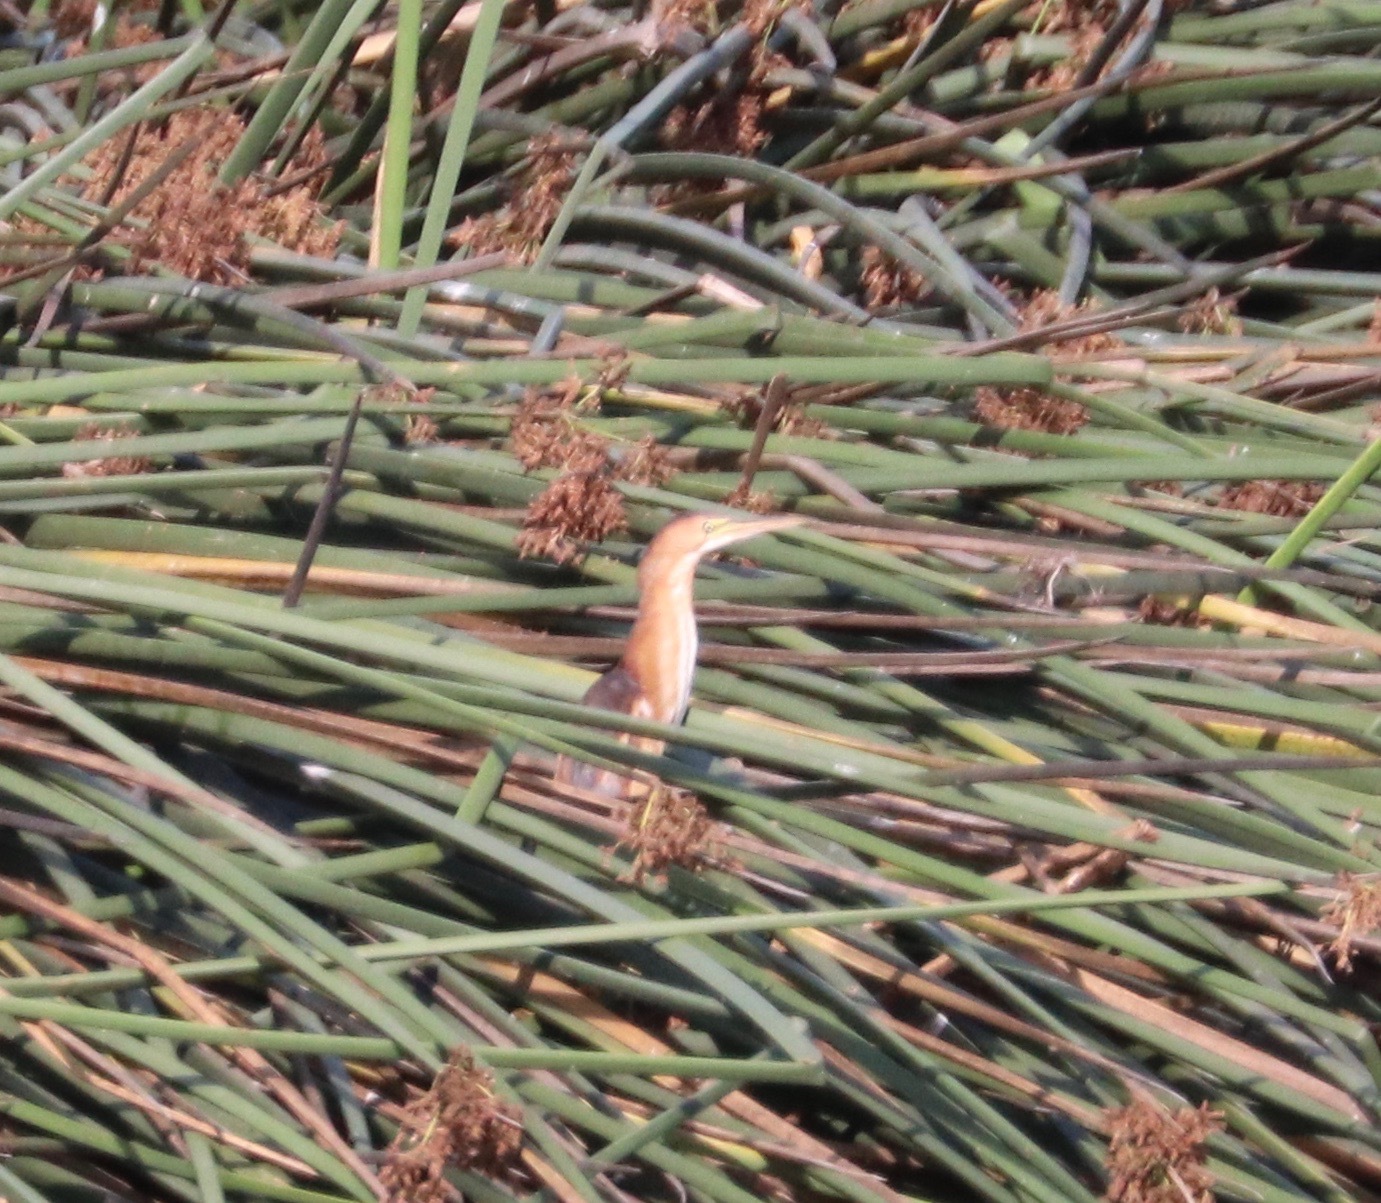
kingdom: Animalia
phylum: Chordata
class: Aves
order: Pelecaniformes
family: Ardeidae
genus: Ixobrychus
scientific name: Ixobrychus exilis
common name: Least bittern
